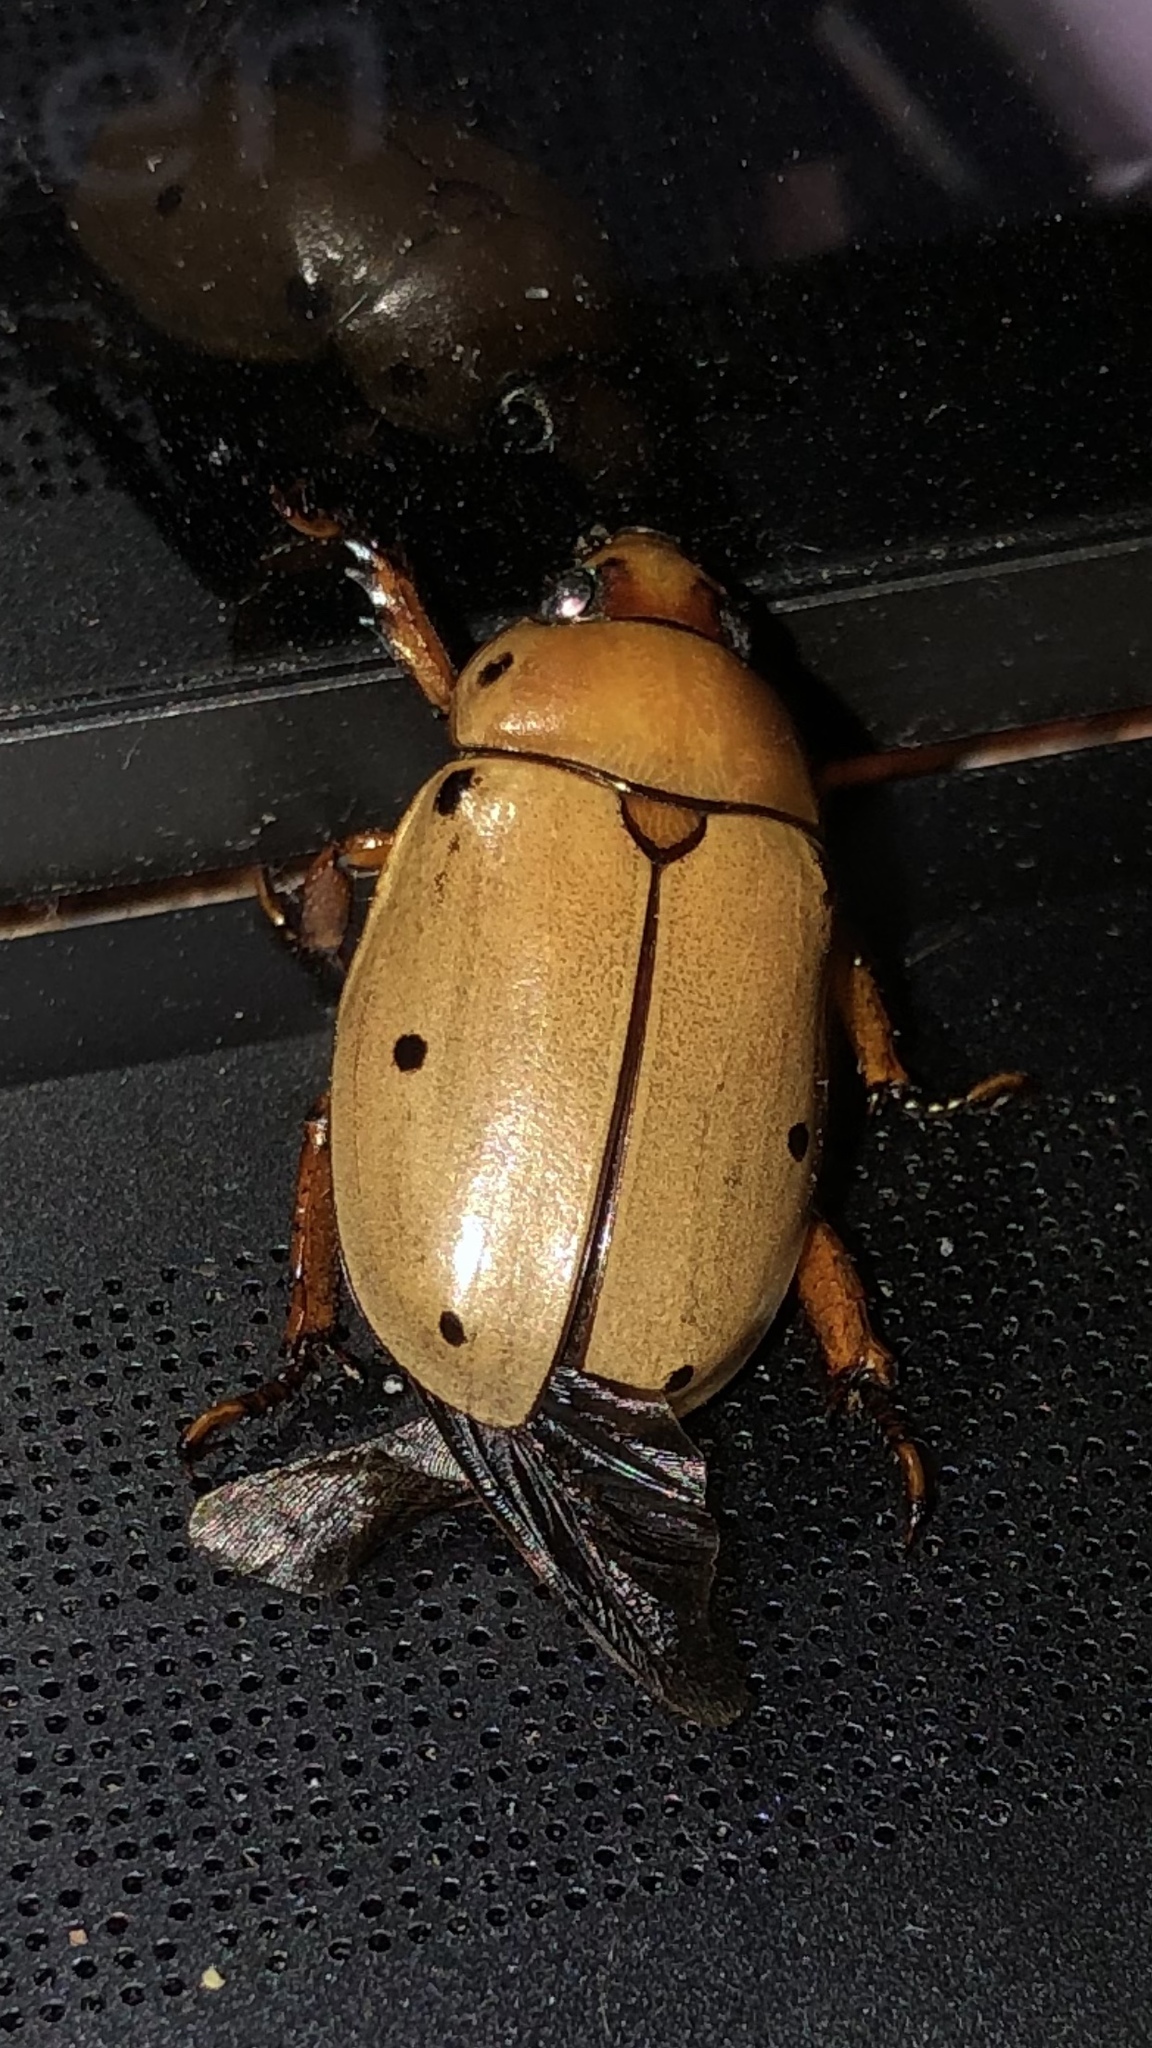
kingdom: Animalia
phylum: Arthropoda
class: Insecta
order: Coleoptera
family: Scarabaeidae
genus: Pelidnota
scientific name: Pelidnota punctata
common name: Grapevine beetle
